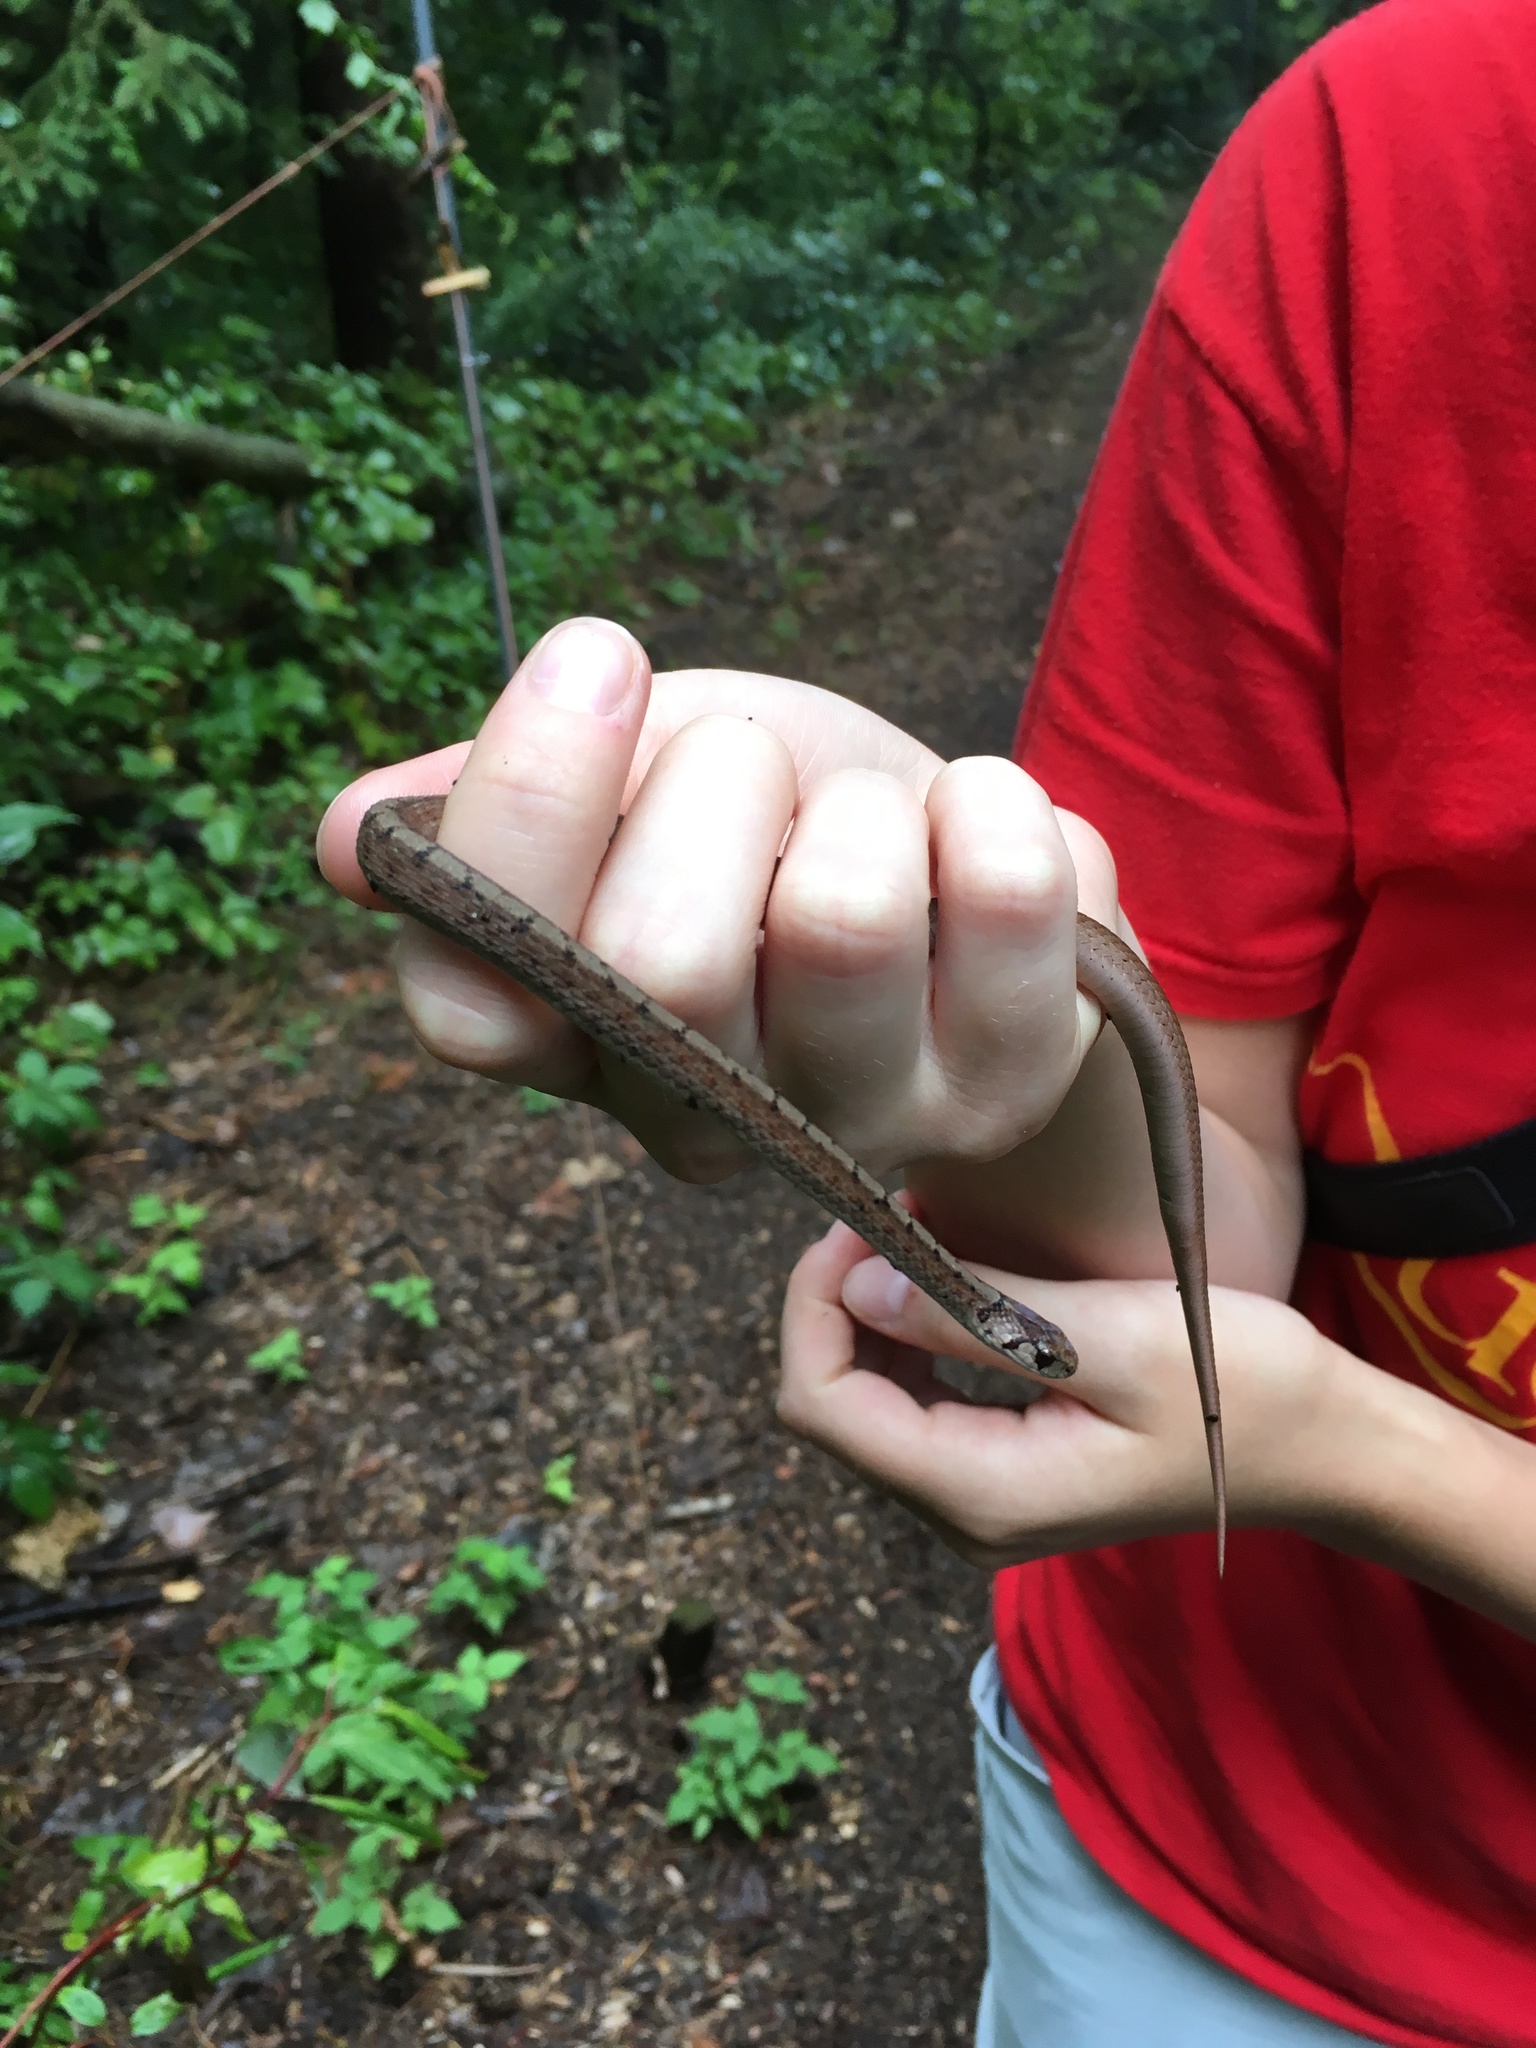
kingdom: Animalia
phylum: Chordata
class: Squamata
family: Colubridae
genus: Storeria
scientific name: Storeria dekayi
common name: (dekay’s) brown snake
